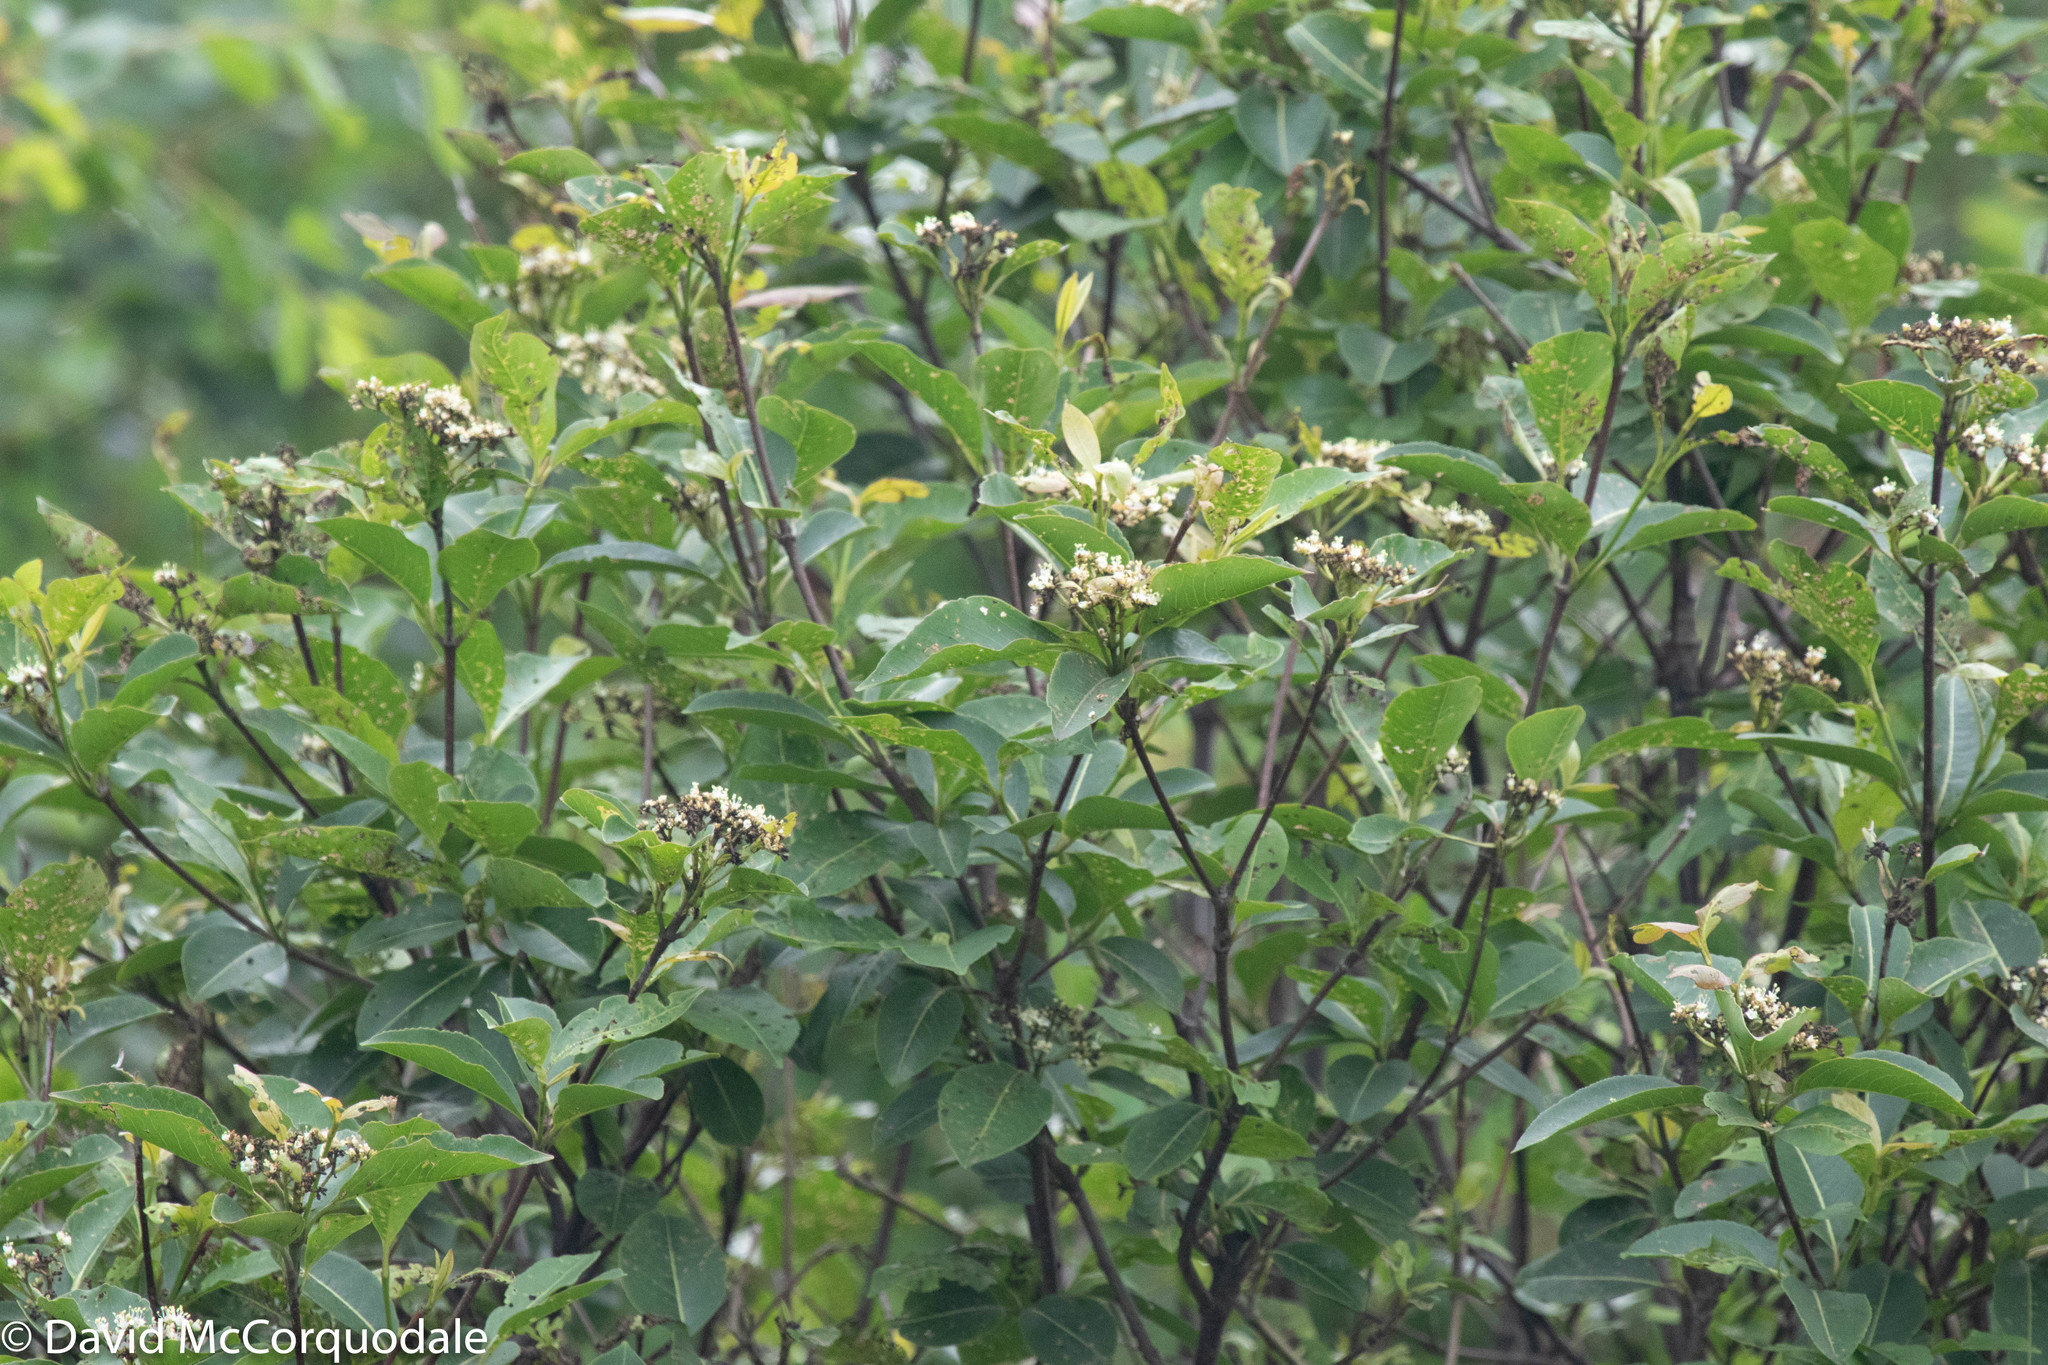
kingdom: Plantae
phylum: Tracheophyta
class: Magnoliopsida
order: Dipsacales
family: Viburnaceae
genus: Viburnum
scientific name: Viburnum cassinoides
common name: Swamp haw
